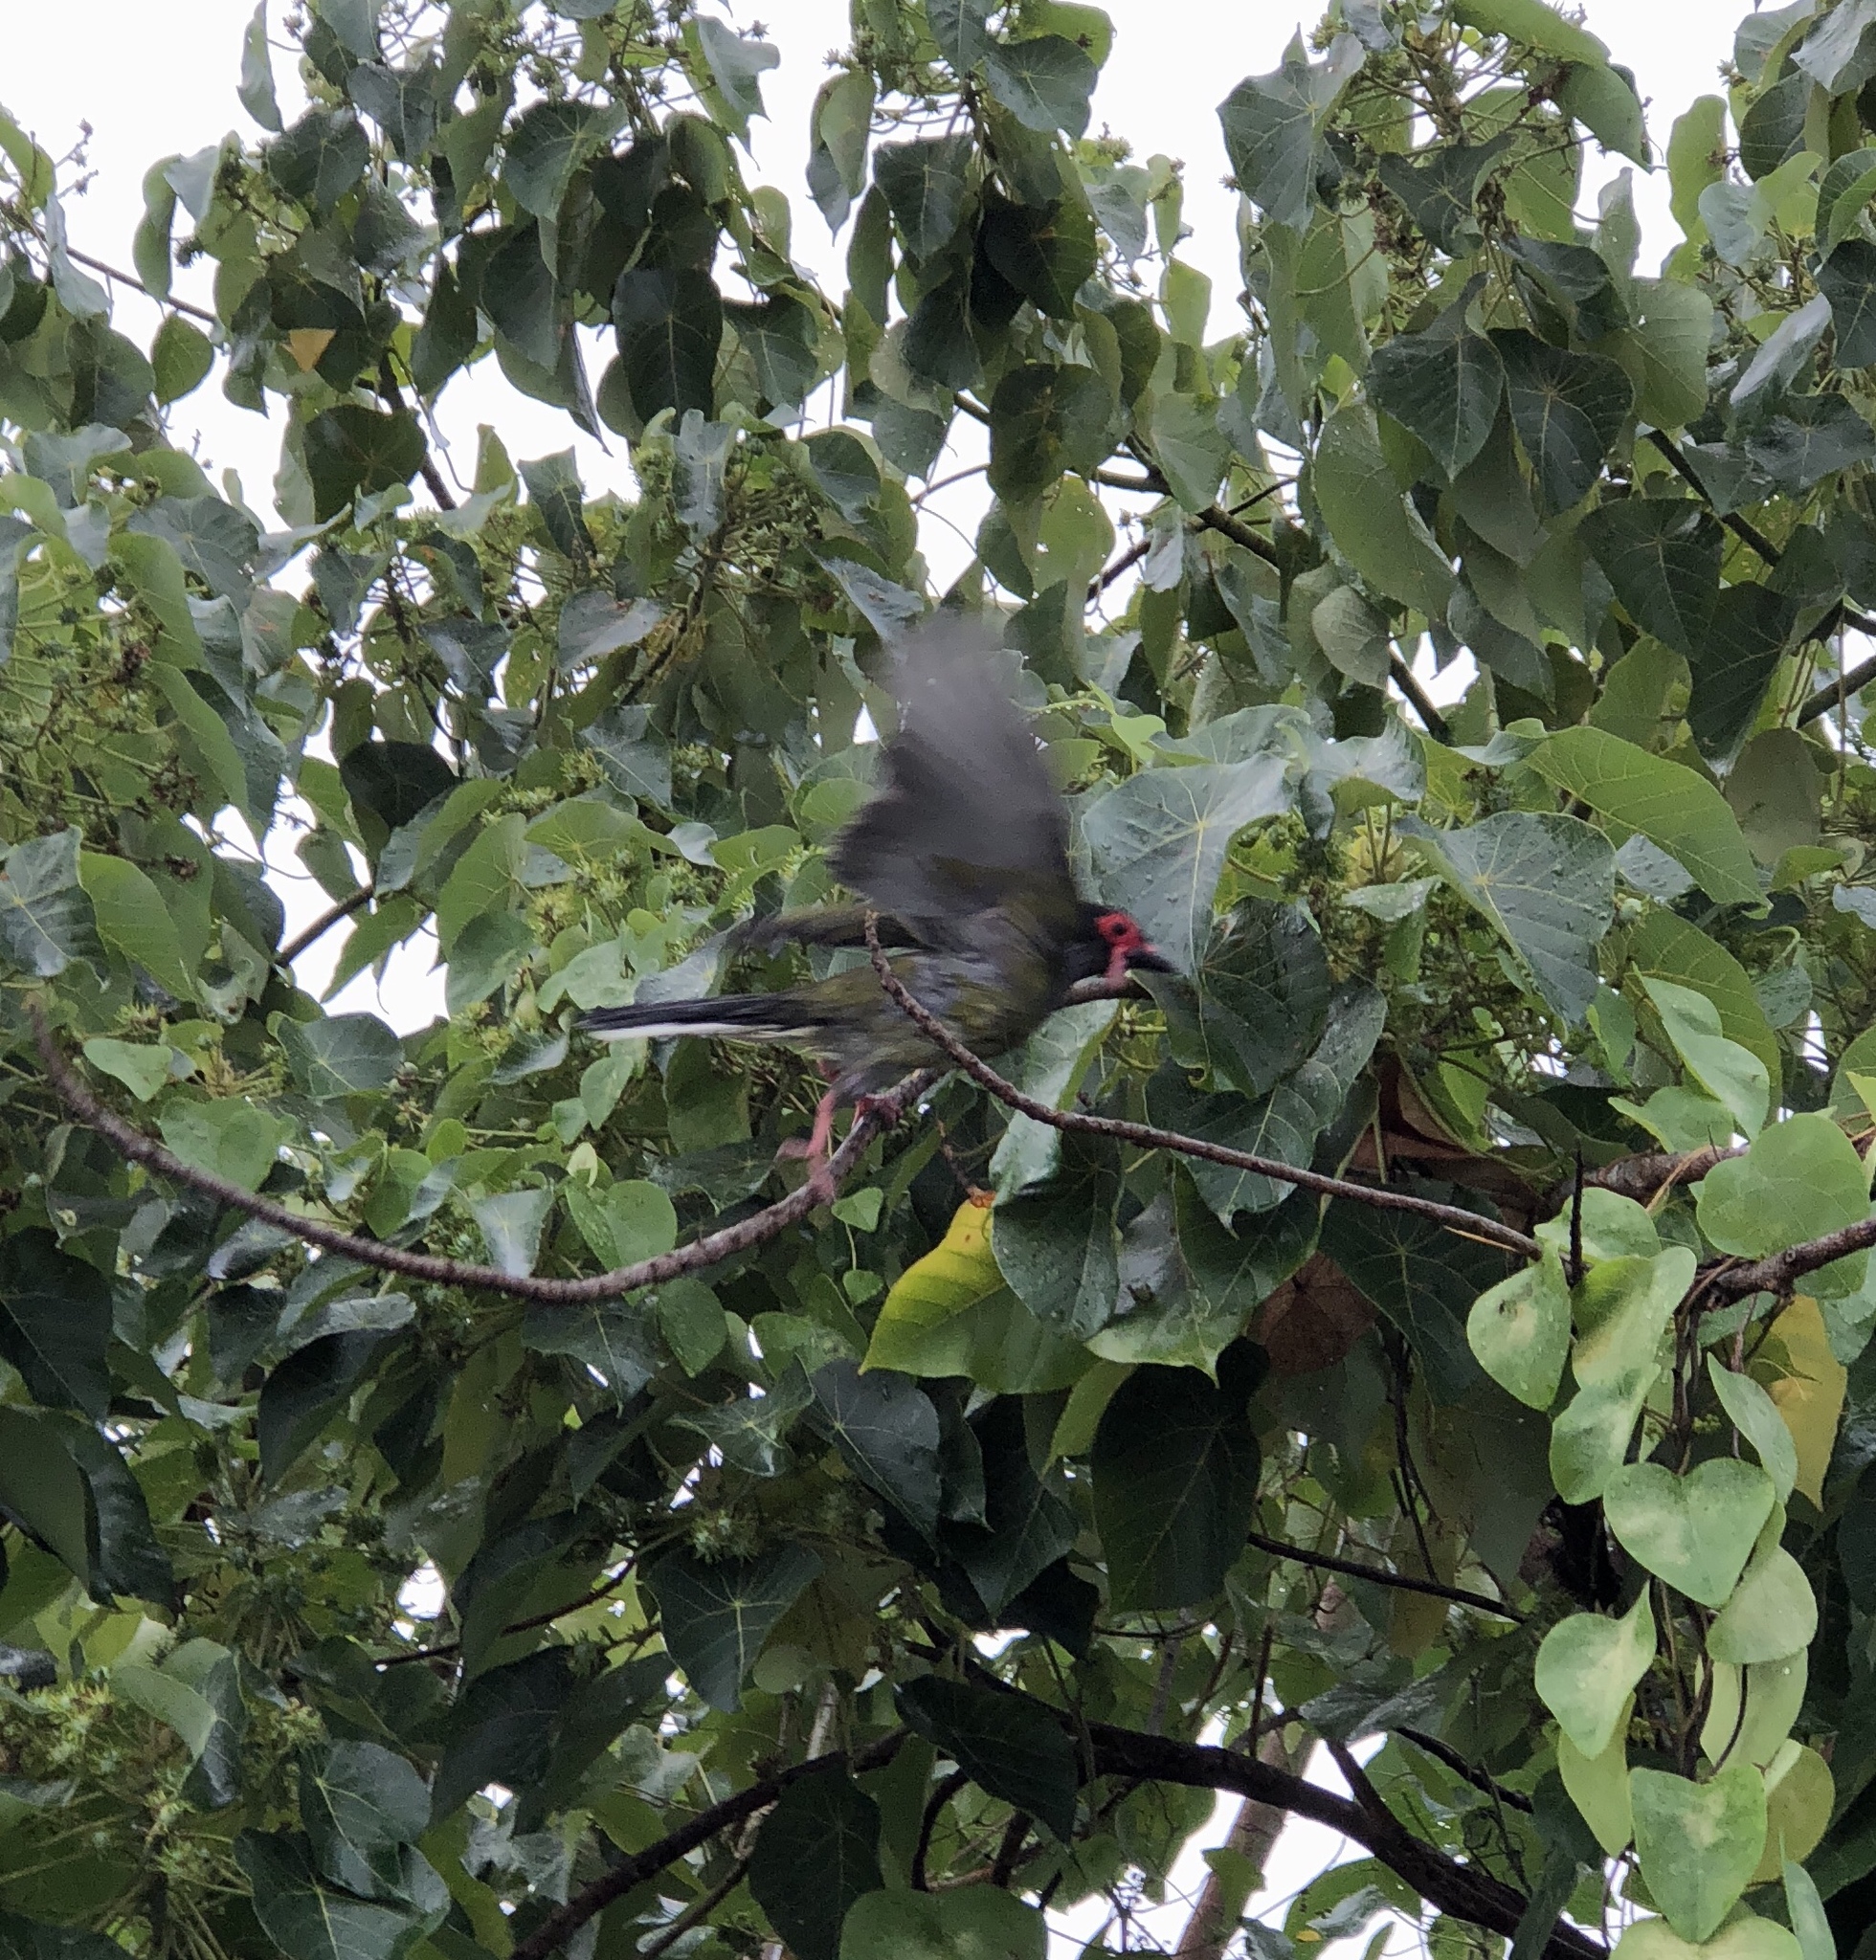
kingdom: Animalia
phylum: Chordata
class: Aves
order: Passeriformes
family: Oriolidae
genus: Sphecotheres
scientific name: Sphecotheres vieilloti
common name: Australasian figbird
